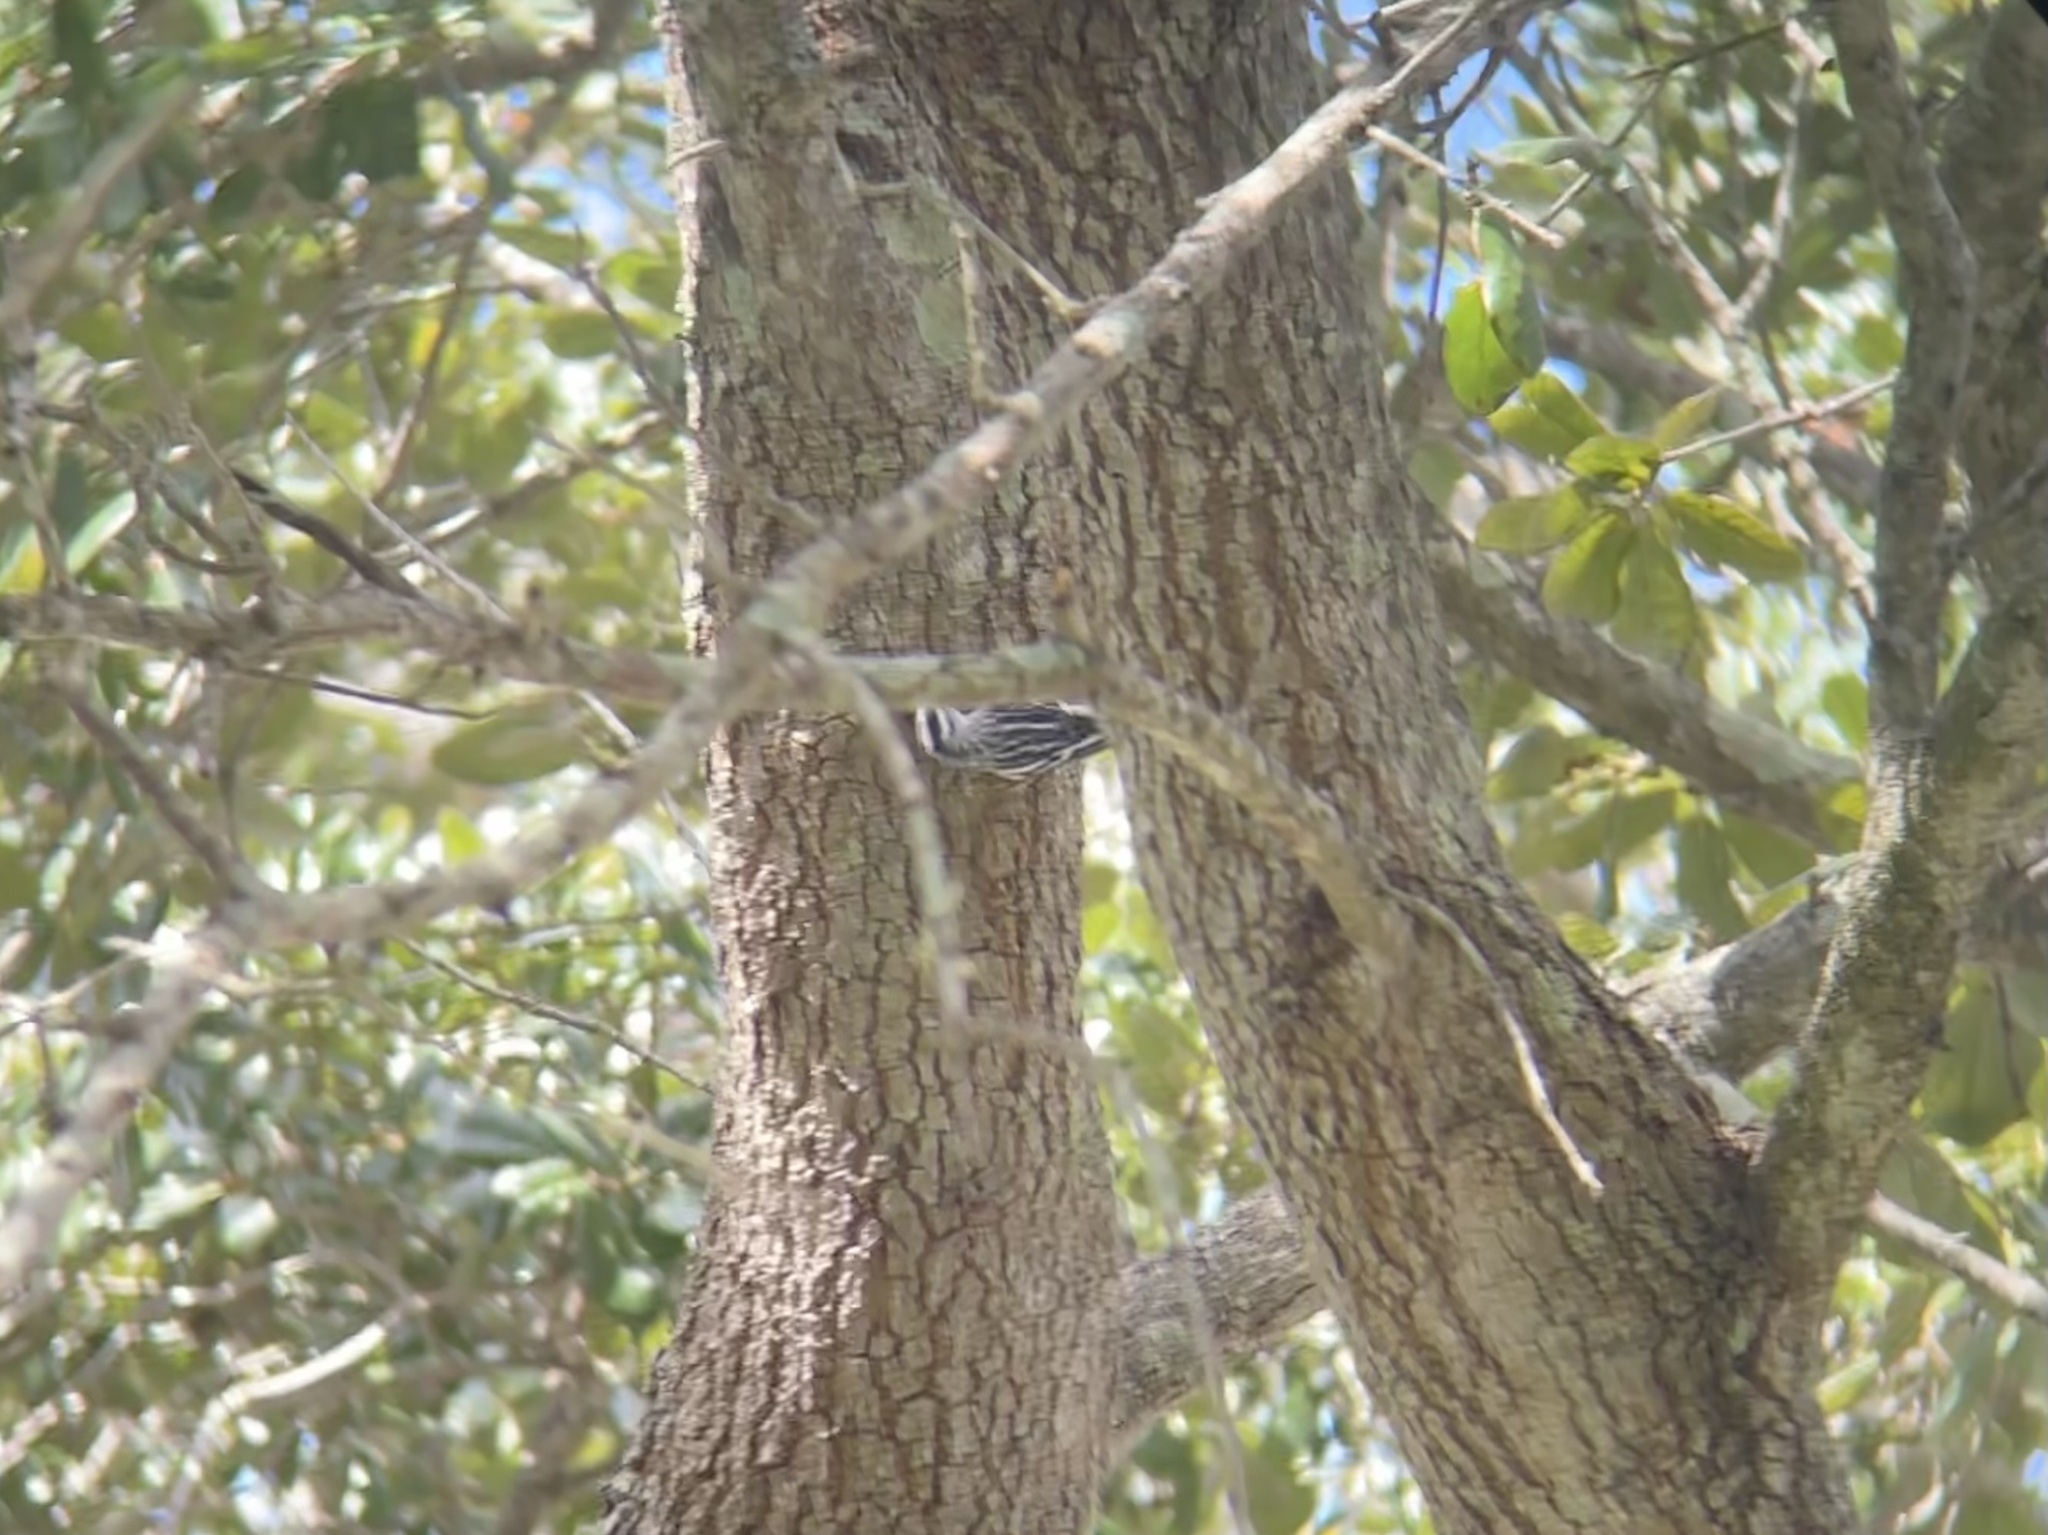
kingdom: Animalia
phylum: Chordata
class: Aves
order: Passeriformes
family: Parulidae
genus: Mniotilta
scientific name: Mniotilta varia
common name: Black-and-white warbler
